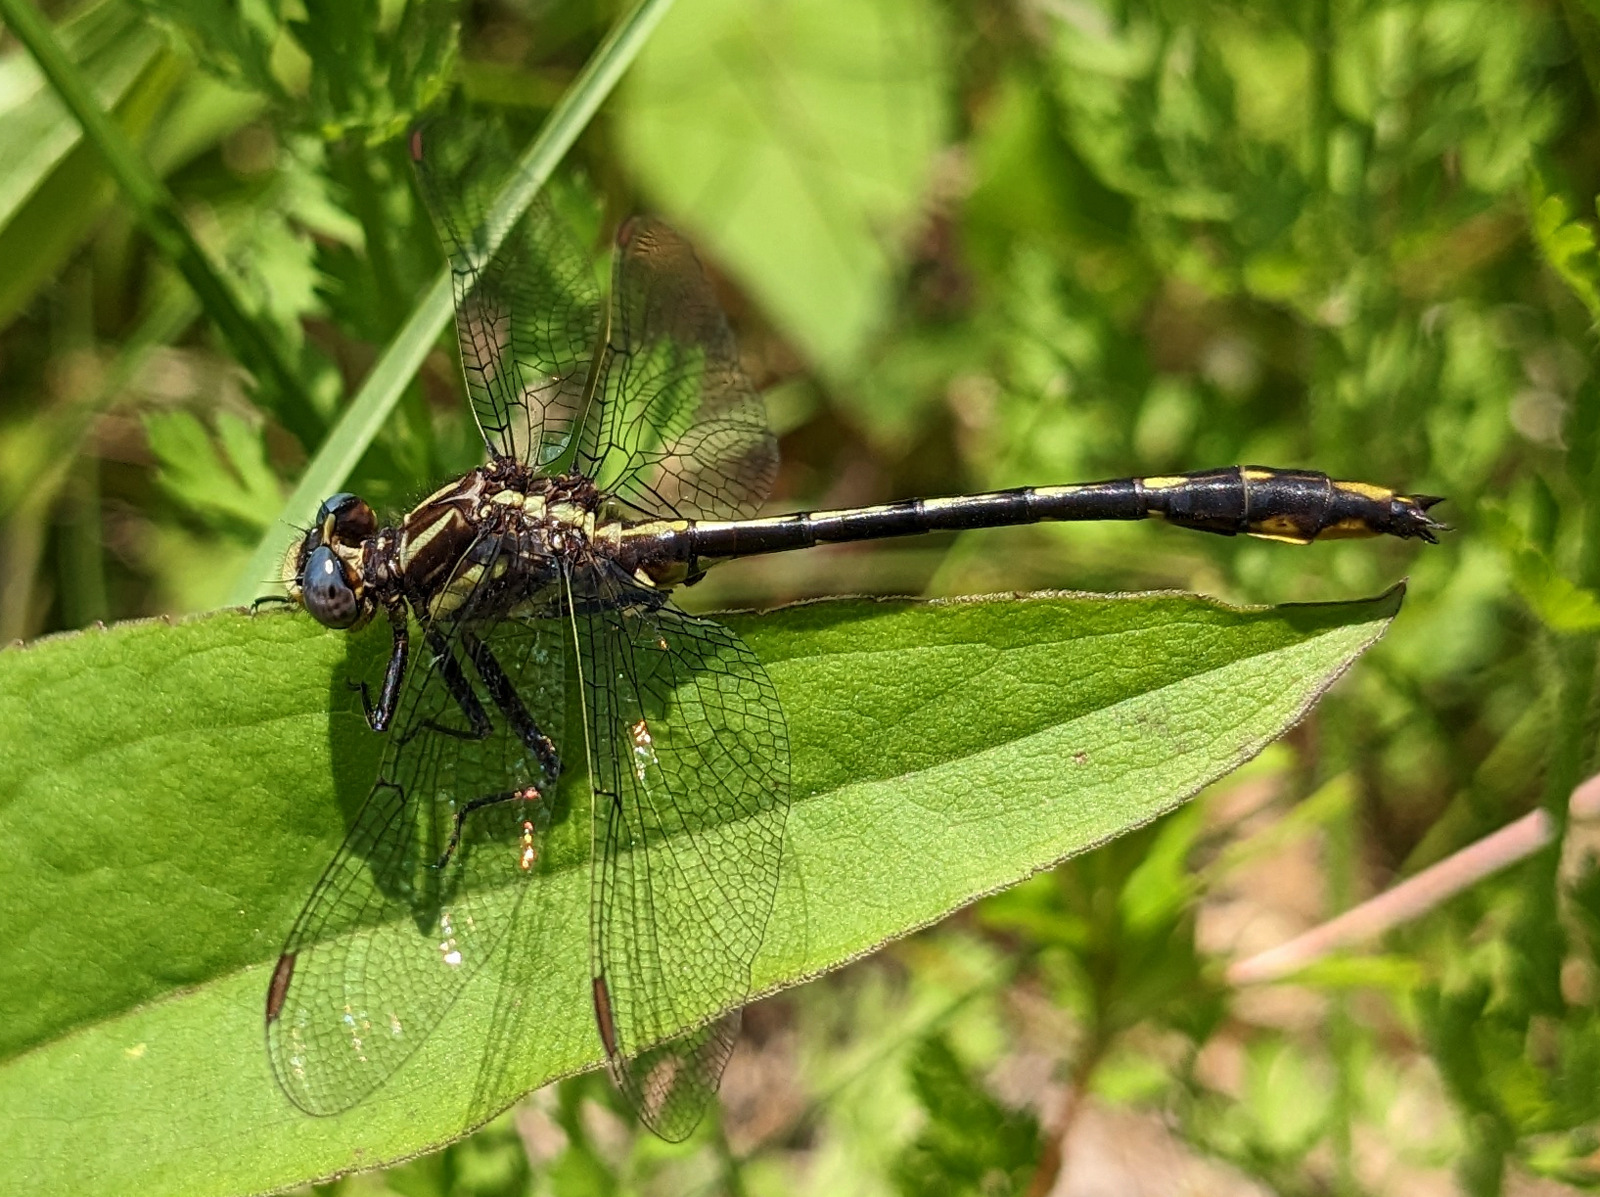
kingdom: Animalia
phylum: Arthropoda
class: Insecta
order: Odonata
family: Gomphidae
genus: Phanogomphus
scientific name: Phanogomphus exilis
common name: Lancet clubtail
